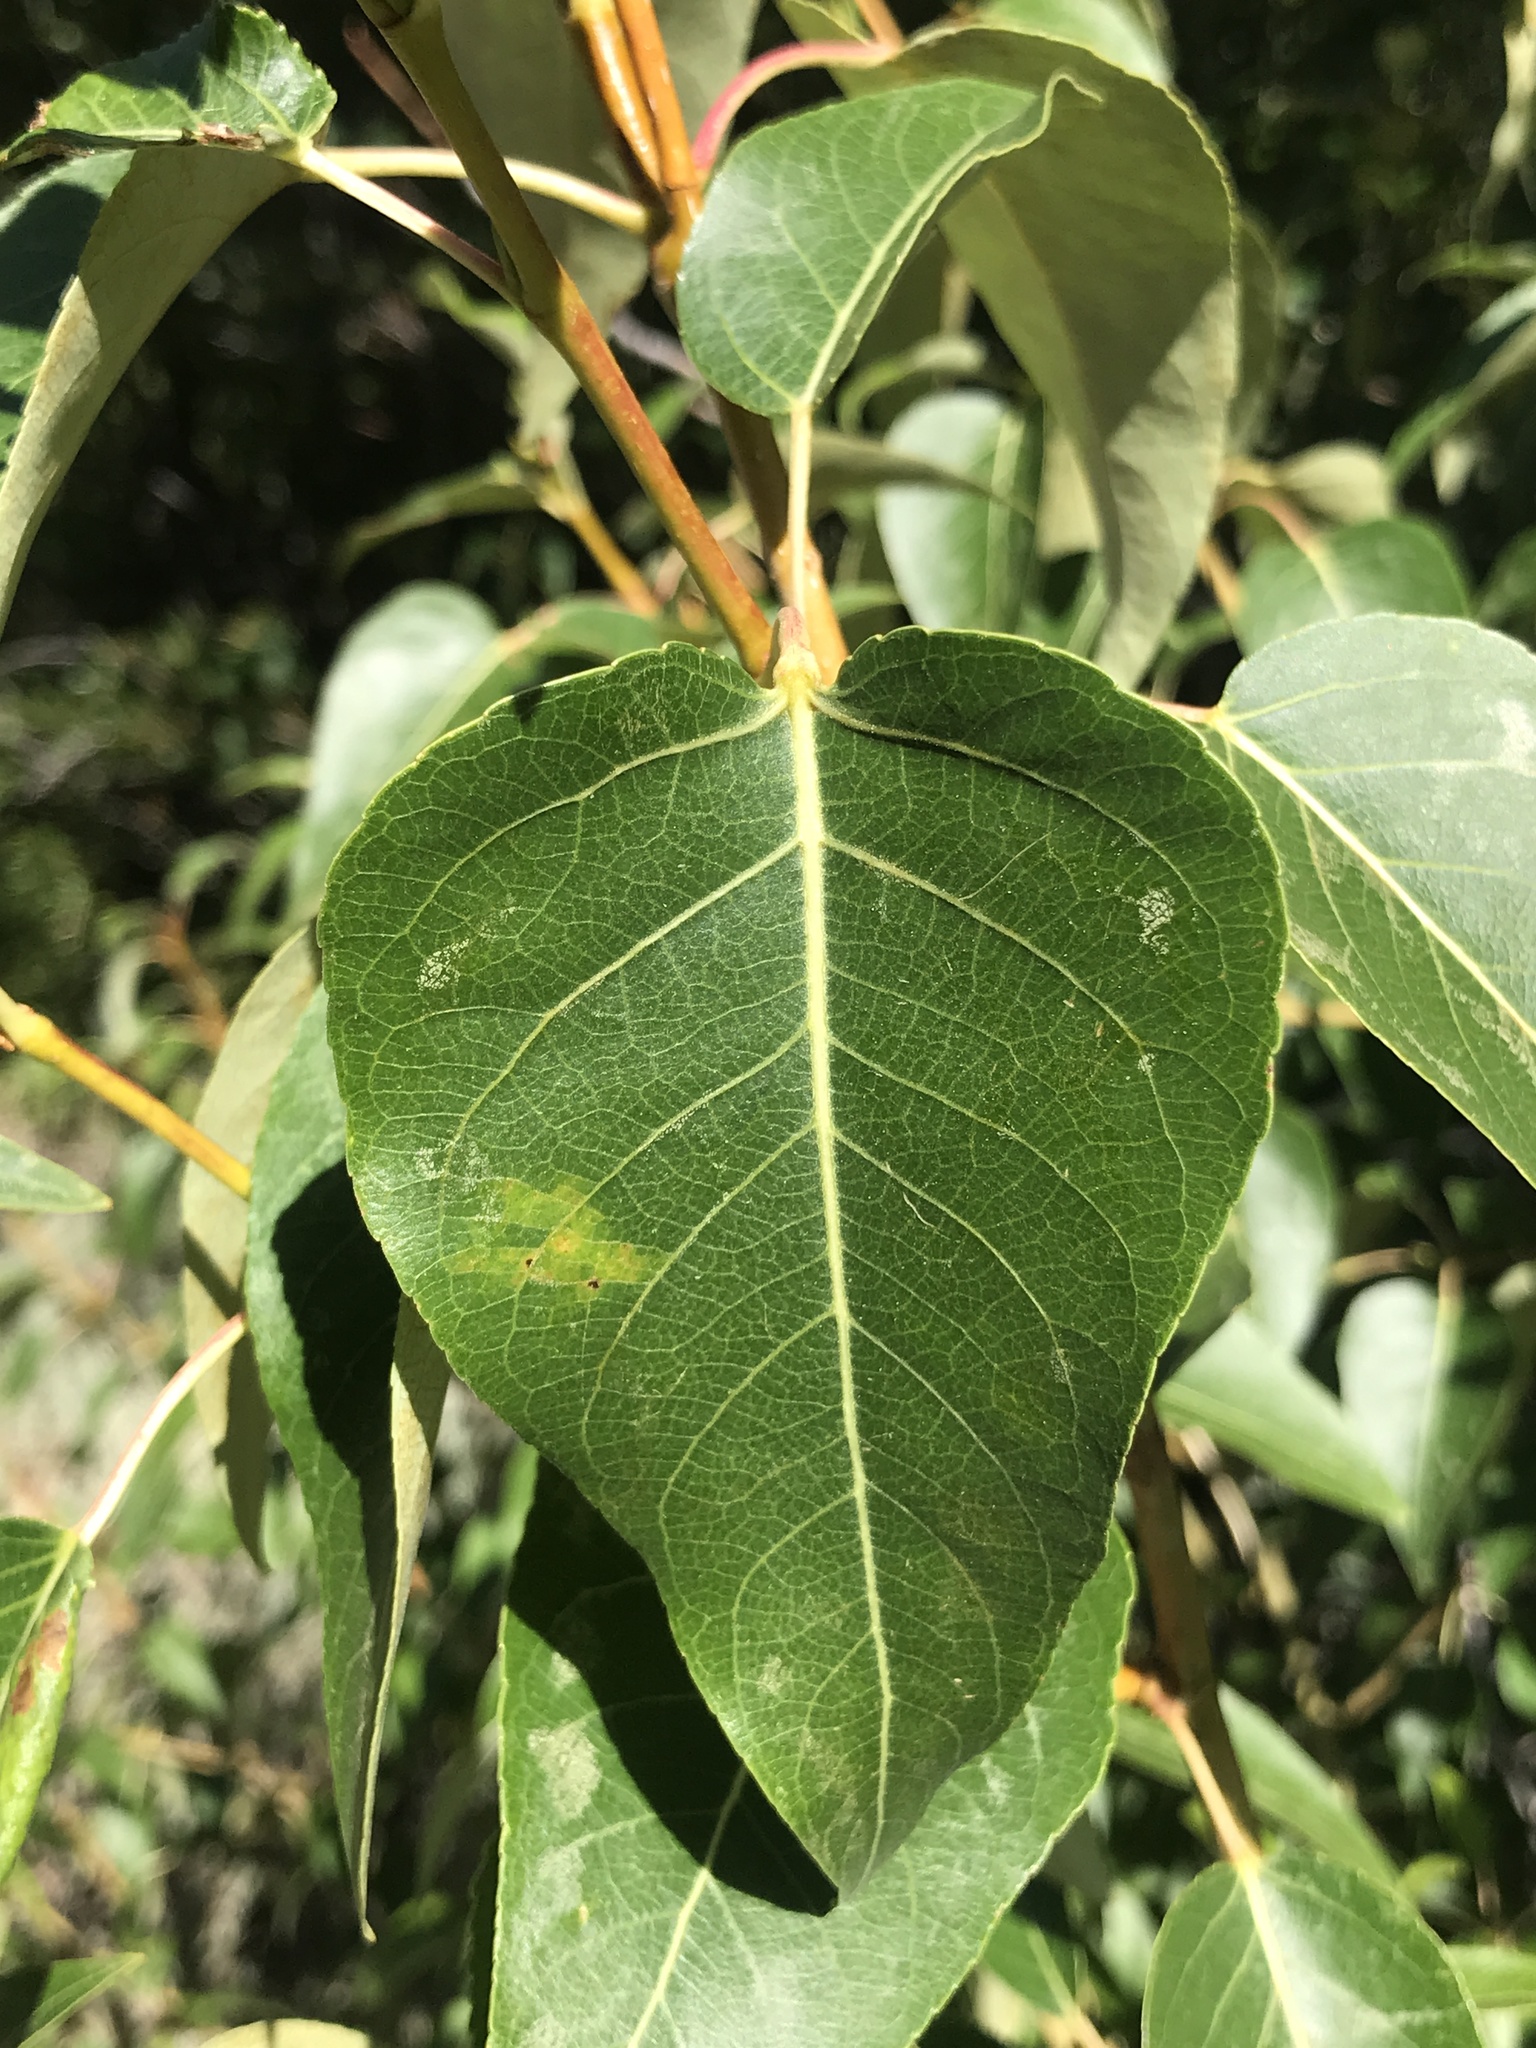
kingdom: Plantae
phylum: Tracheophyta
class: Magnoliopsida
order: Malpighiales
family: Salicaceae
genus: Populus
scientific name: Populus trichocarpa
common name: Black cottonwood
